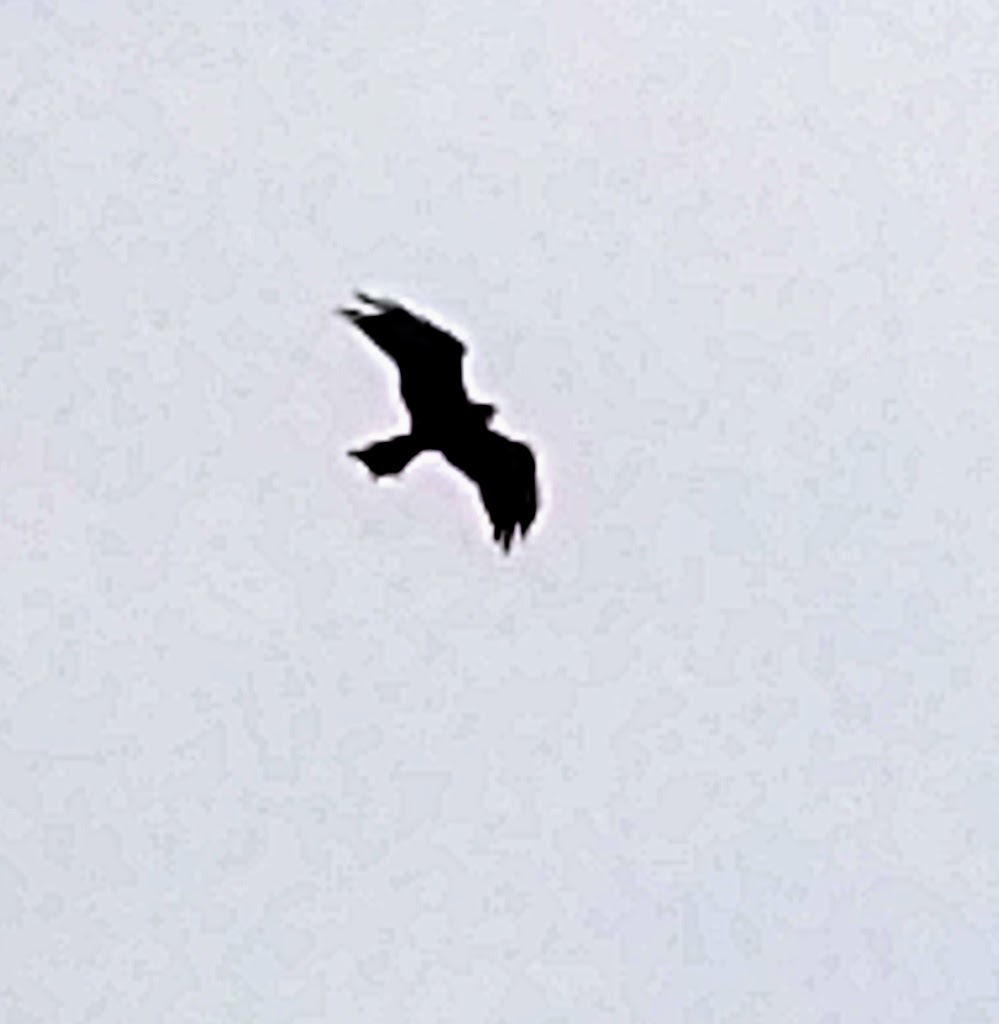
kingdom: Animalia
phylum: Chordata
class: Aves
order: Accipitriformes
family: Accipitridae
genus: Milvus
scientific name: Milvus migrans
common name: Black kite
